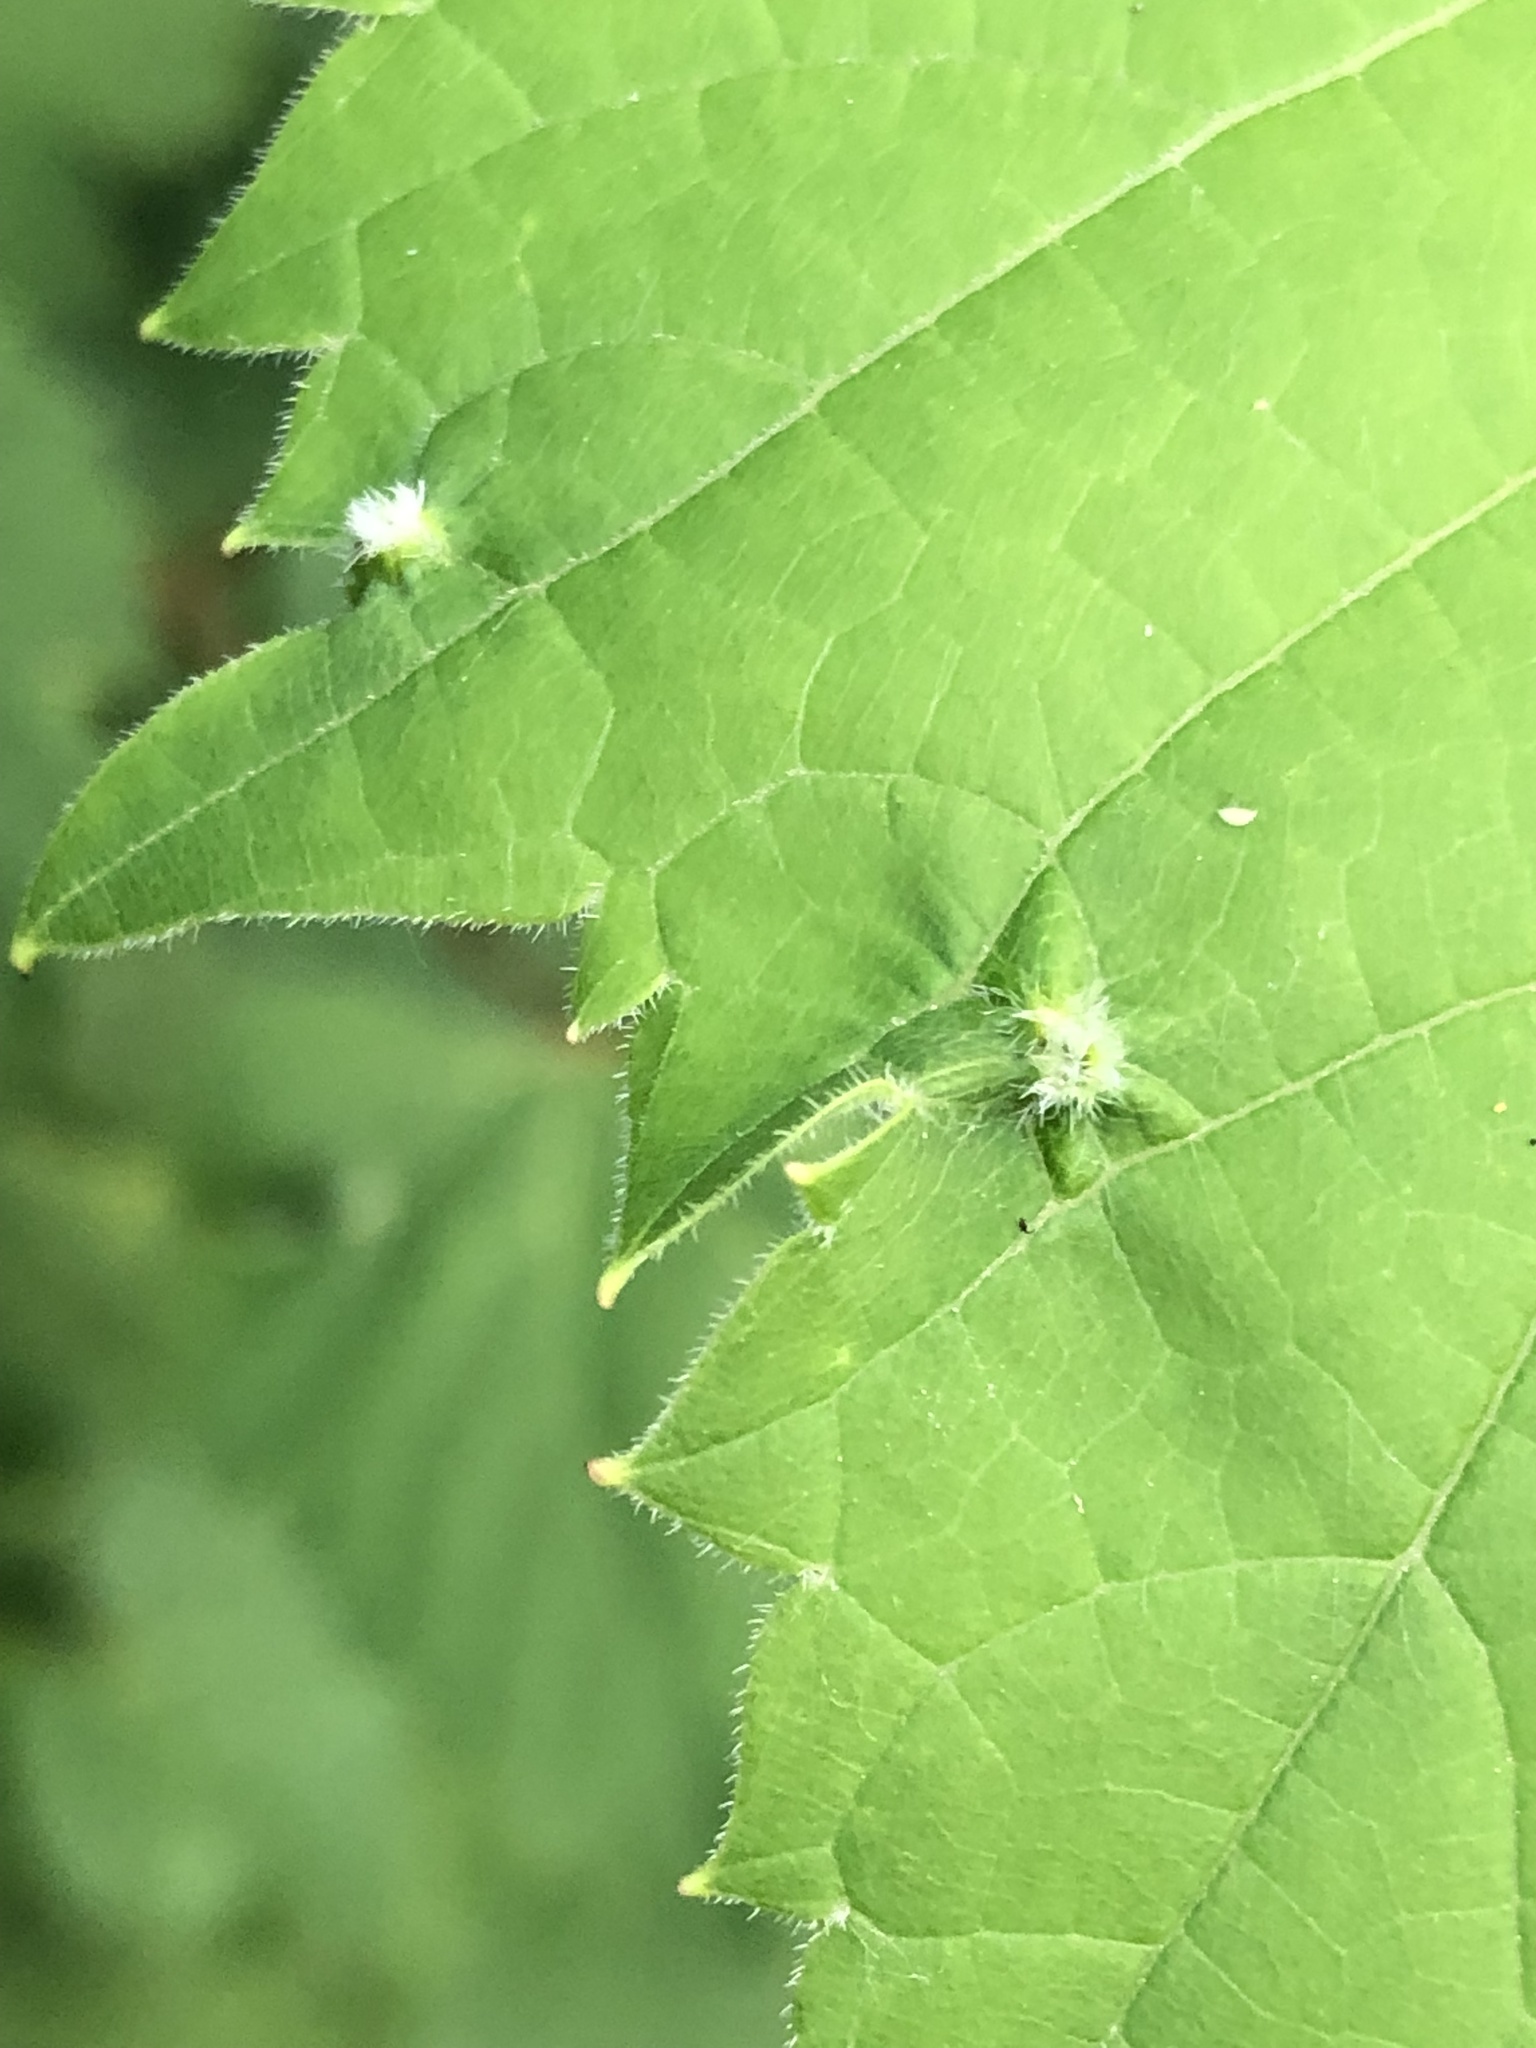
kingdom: Animalia
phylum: Arthropoda
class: Insecta
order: Hemiptera
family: Phylloxeridae
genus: Daktulosphaira
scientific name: Daktulosphaira vitifoliae
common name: Grape phylloxera
